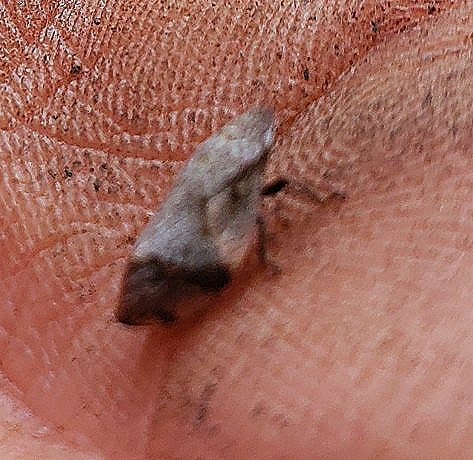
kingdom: Animalia
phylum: Arthropoda
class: Insecta
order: Hemiptera
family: Aphrophoridae
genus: Lepyronia
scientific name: Lepyronia quadrangularis
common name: Diamond-backed spittlebug
